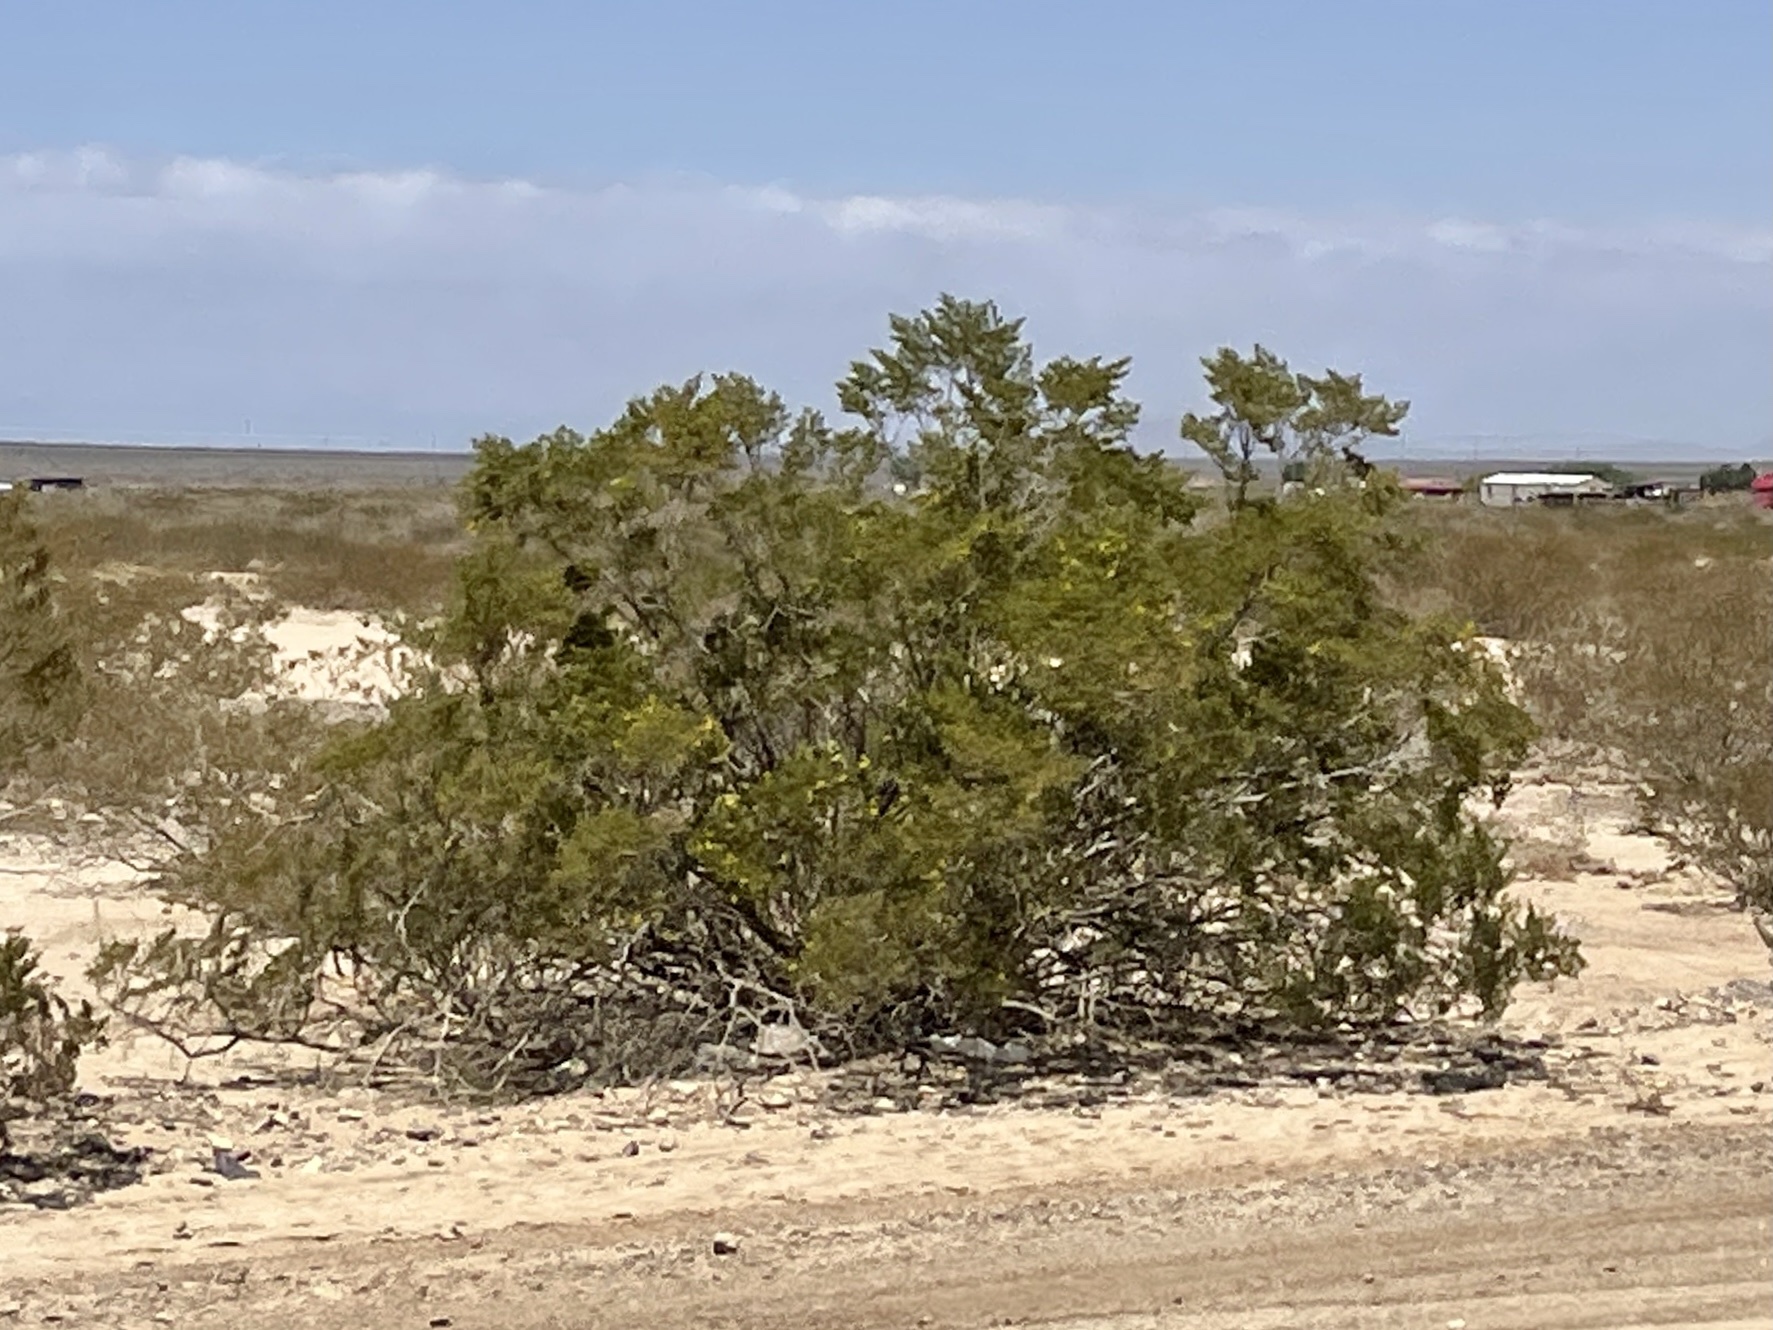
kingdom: Plantae
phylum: Tracheophyta
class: Magnoliopsida
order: Zygophyllales
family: Zygophyllaceae
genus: Larrea
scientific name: Larrea tridentata
